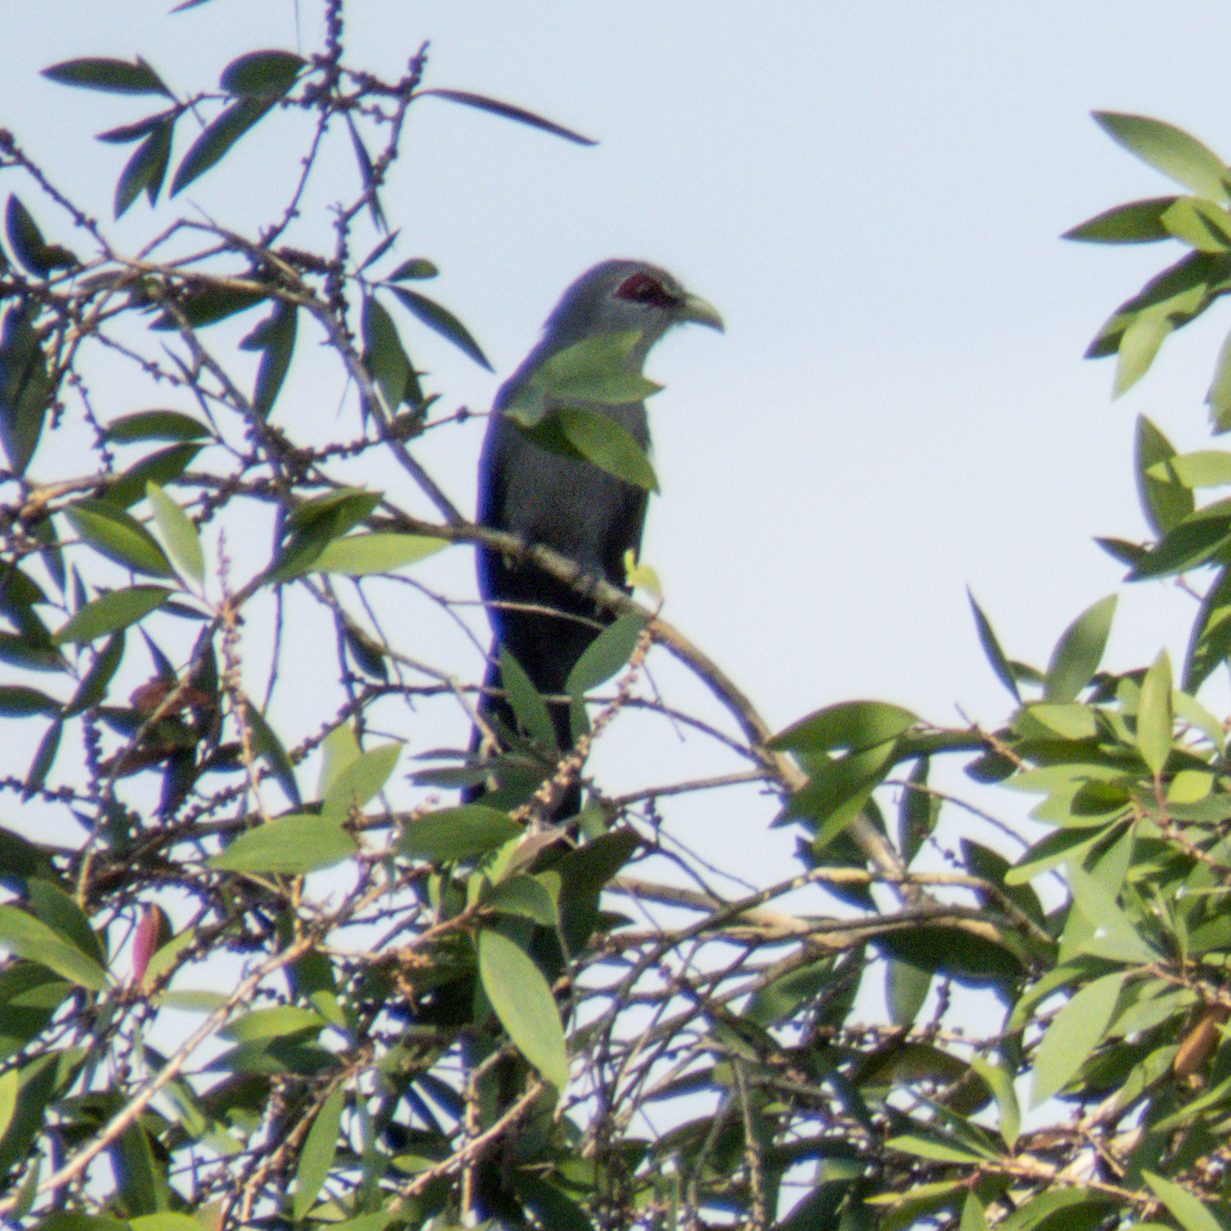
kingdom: Animalia
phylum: Chordata
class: Aves
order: Cuculiformes
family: Cuculidae
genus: Rhopodytes
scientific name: Rhopodytes tristis
